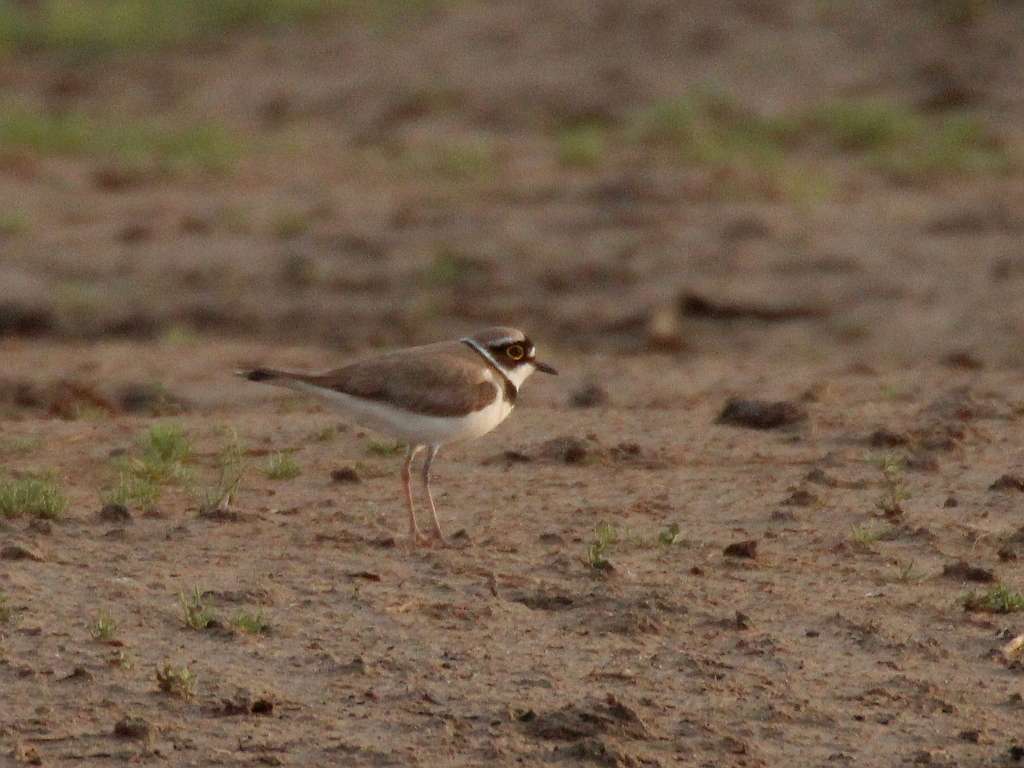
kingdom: Animalia
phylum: Chordata
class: Aves
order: Charadriiformes
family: Charadriidae
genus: Charadrius
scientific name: Charadrius dubius
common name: Little ringed plover
